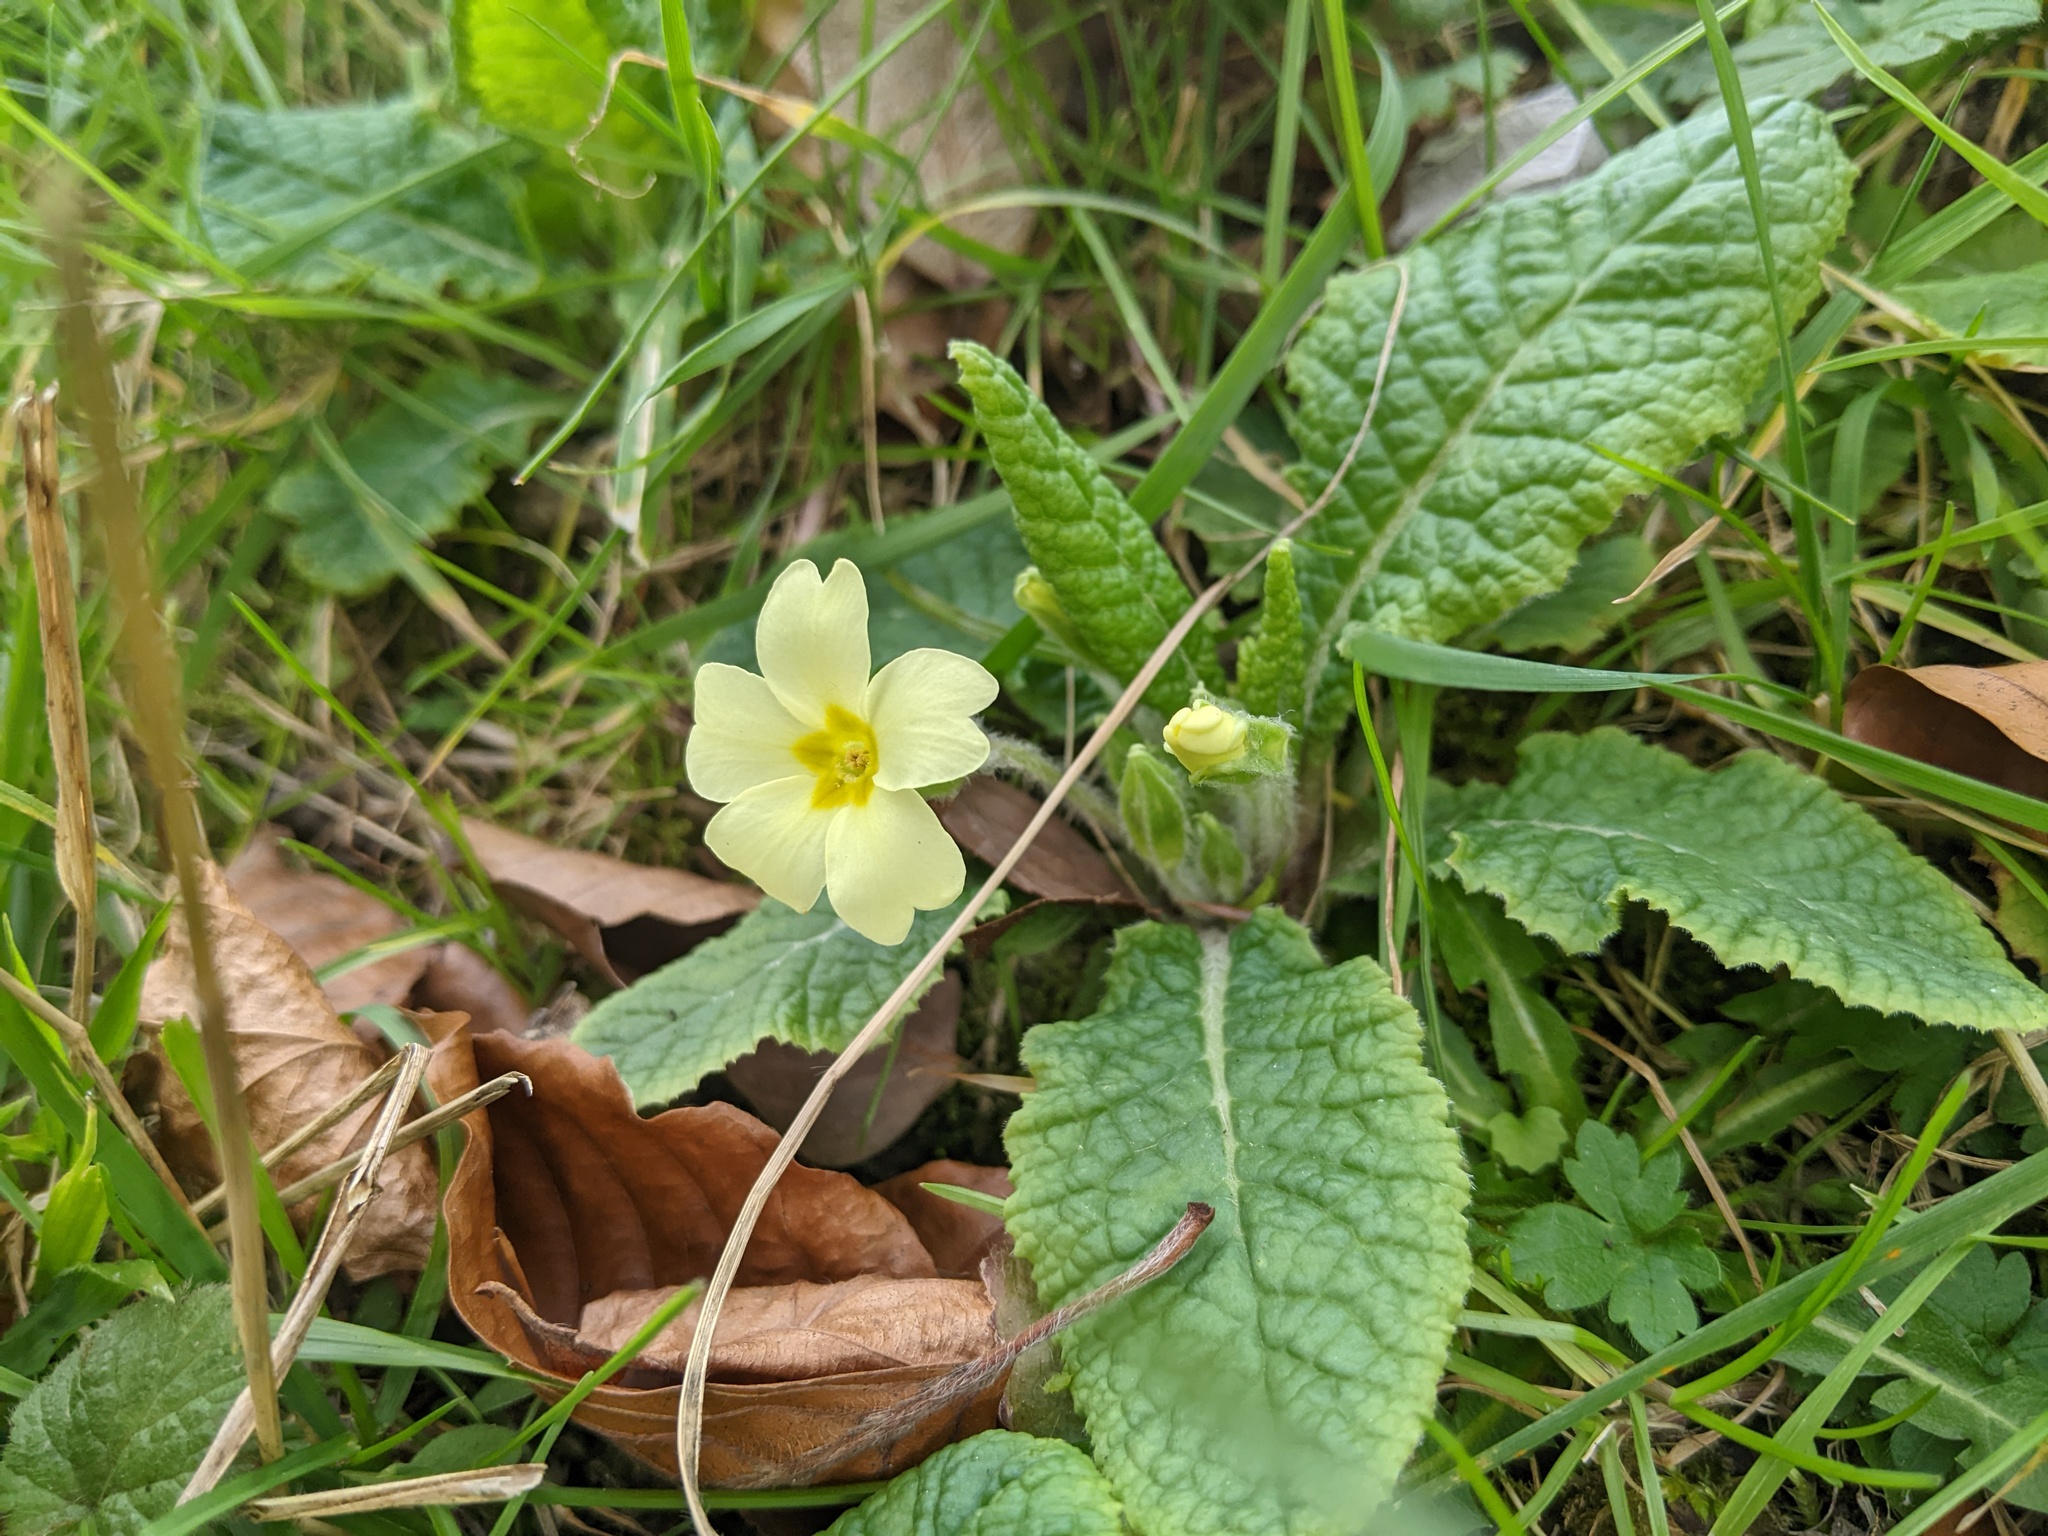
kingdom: Plantae
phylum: Tracheophyta
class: Magnoliopsida
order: Ericales
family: Primulaceae
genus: Primula
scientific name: Primula vulgaris
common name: Primrose
